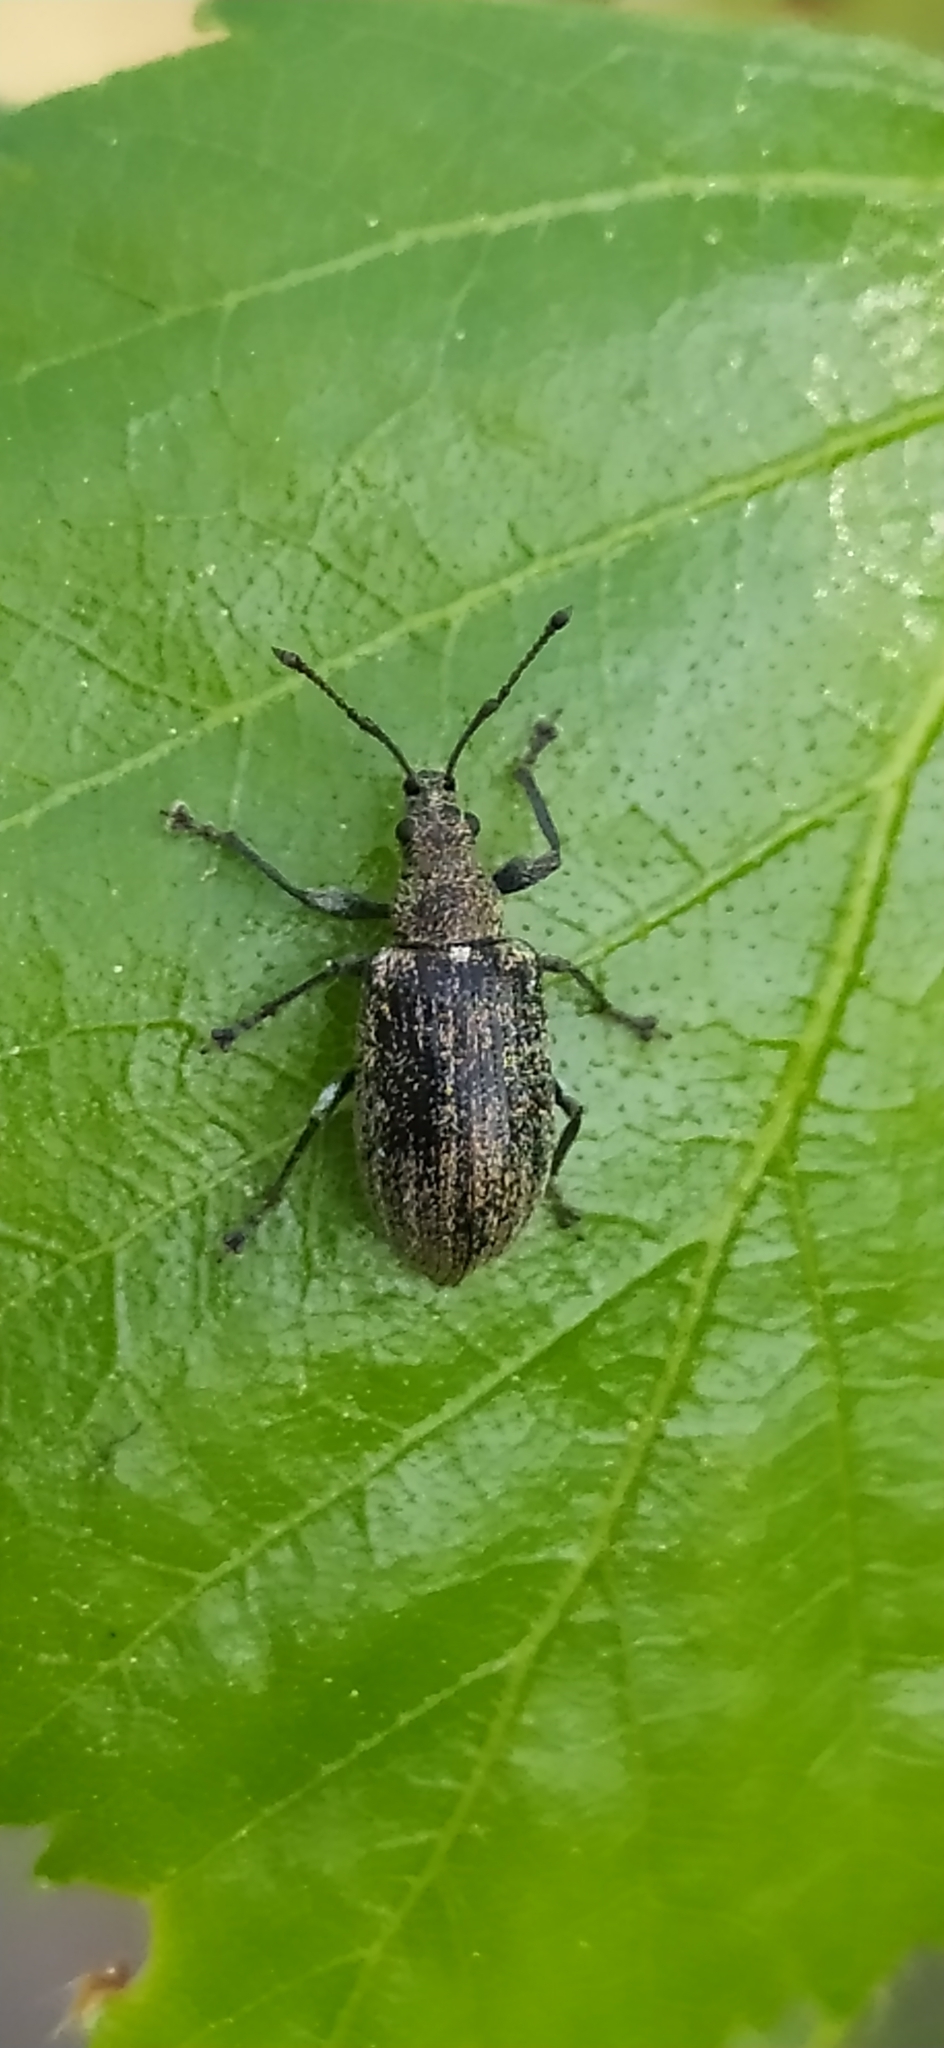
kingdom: Animalia
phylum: Arthropoda
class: Insecta
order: Coleoptera
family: Curculionidae
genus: Phyllobius
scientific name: Phyllobius pyri
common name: Common leaf weevil
